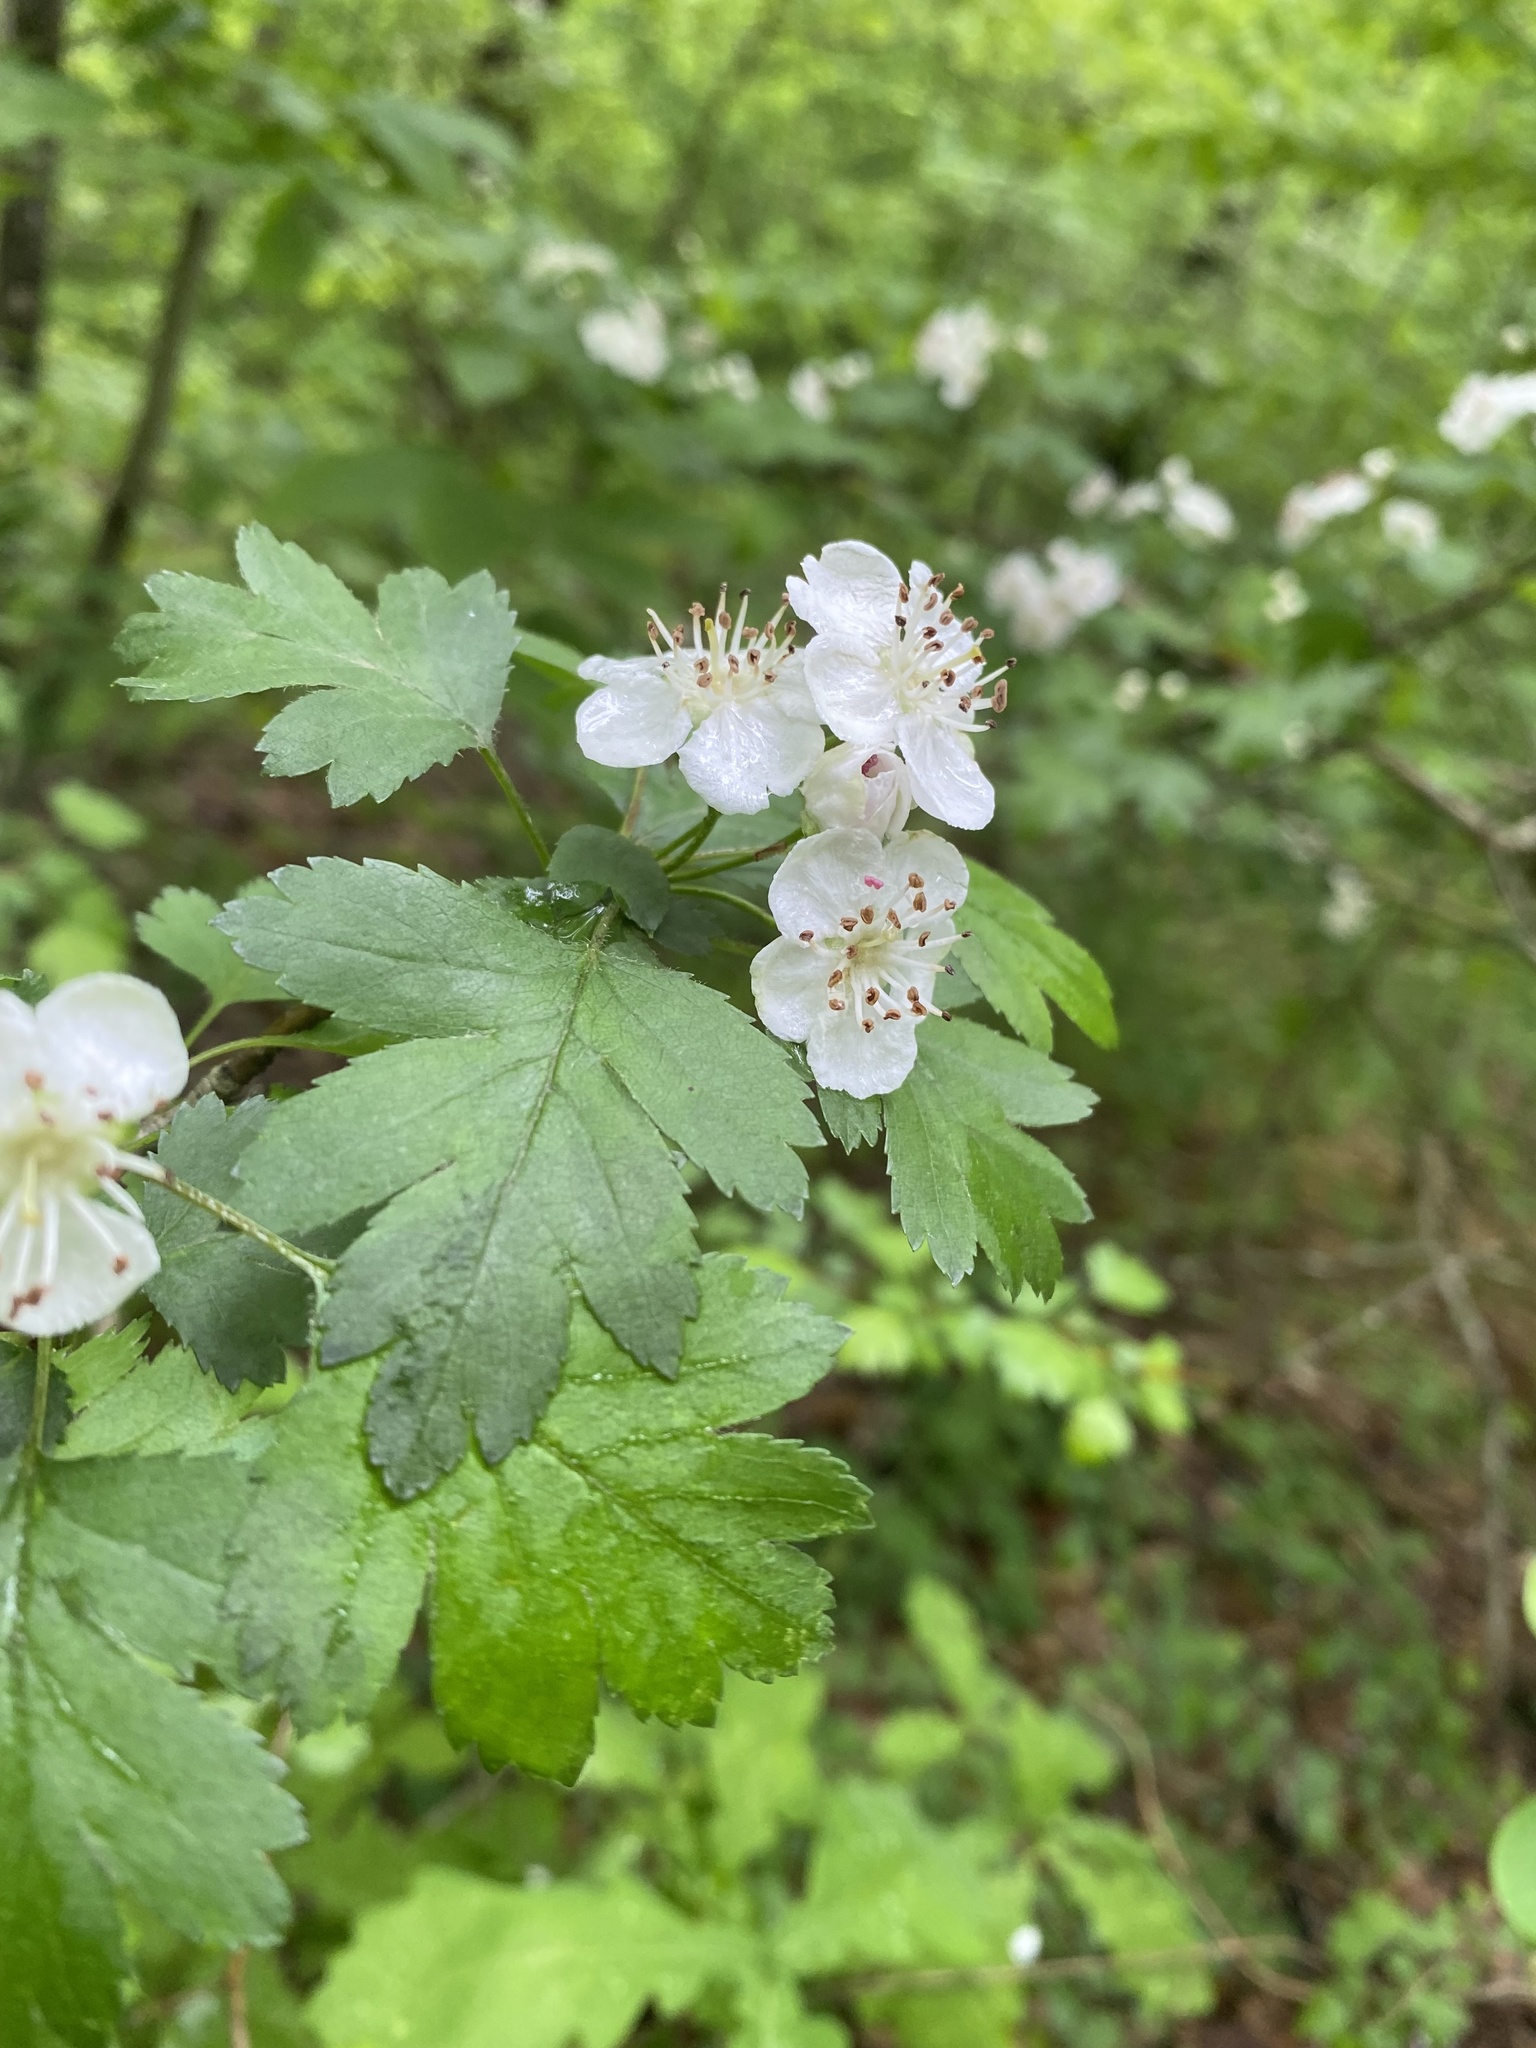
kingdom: Plantae
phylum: Tracheophyta
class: Magnoliopsida
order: Rosales
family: Rosaceae
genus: Crataegus
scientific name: Crataegus monogyna
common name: Hawthorn
